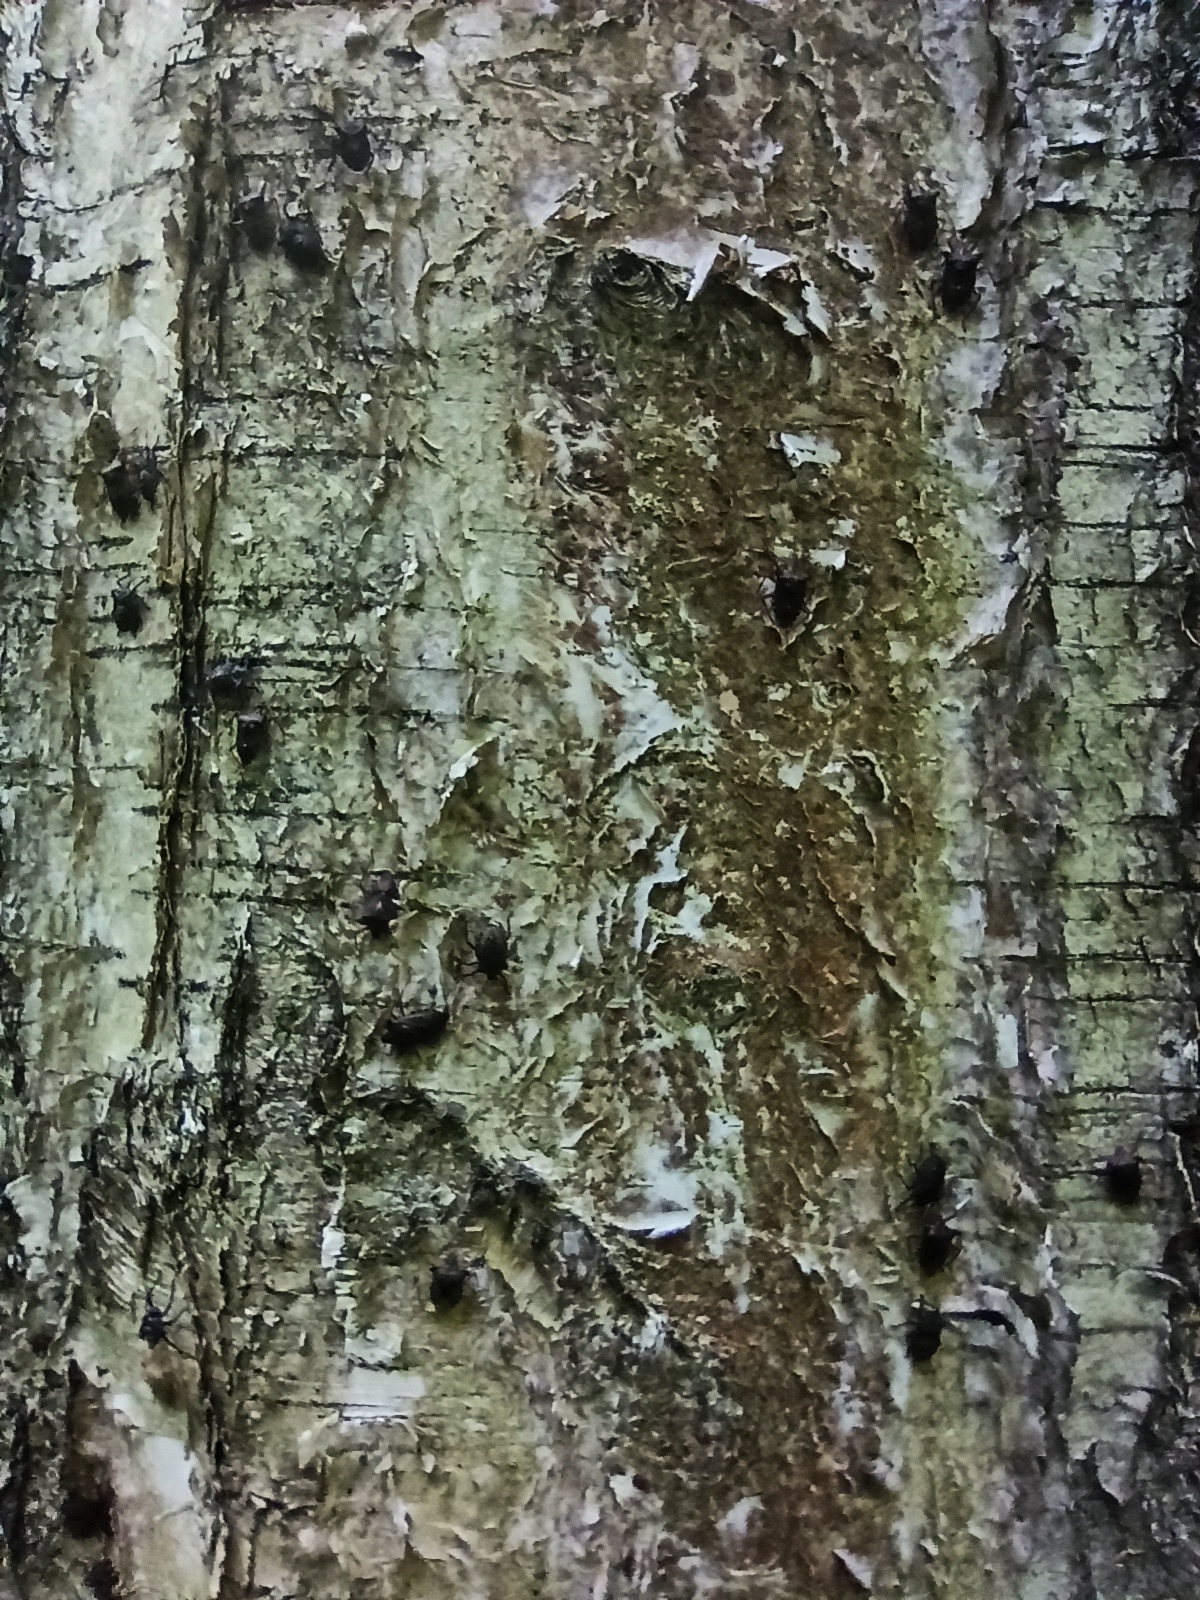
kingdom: Animalia
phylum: Arthropoda
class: Insecta
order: Hemiptera
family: Pentatomidae
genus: Pentatoma
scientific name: Pentatoma rufipes
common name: Forest bug
